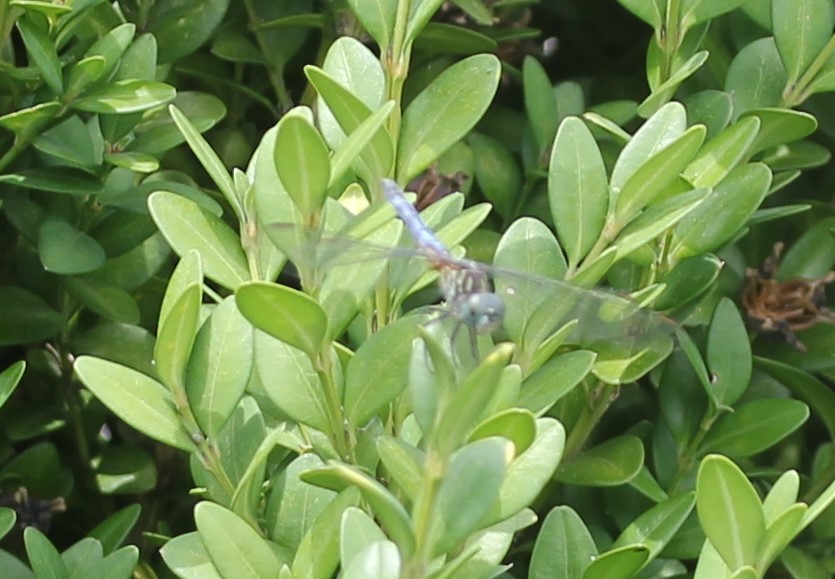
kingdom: Animalia
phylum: Arthropoda
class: Insecta
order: Odonata
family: Libellulidae
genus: Pachydiplax
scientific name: Pachydiplax longipennis
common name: Blue dasher
